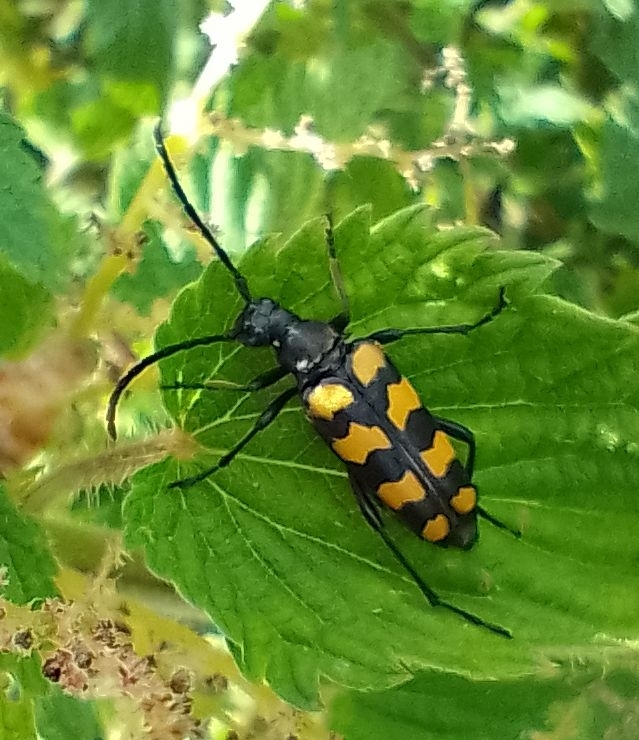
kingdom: Animalia
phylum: Arthropoda
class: Insecta
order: Coleoptera
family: Cerambycidae
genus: Leptura
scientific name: Leptura quadrifasciata
